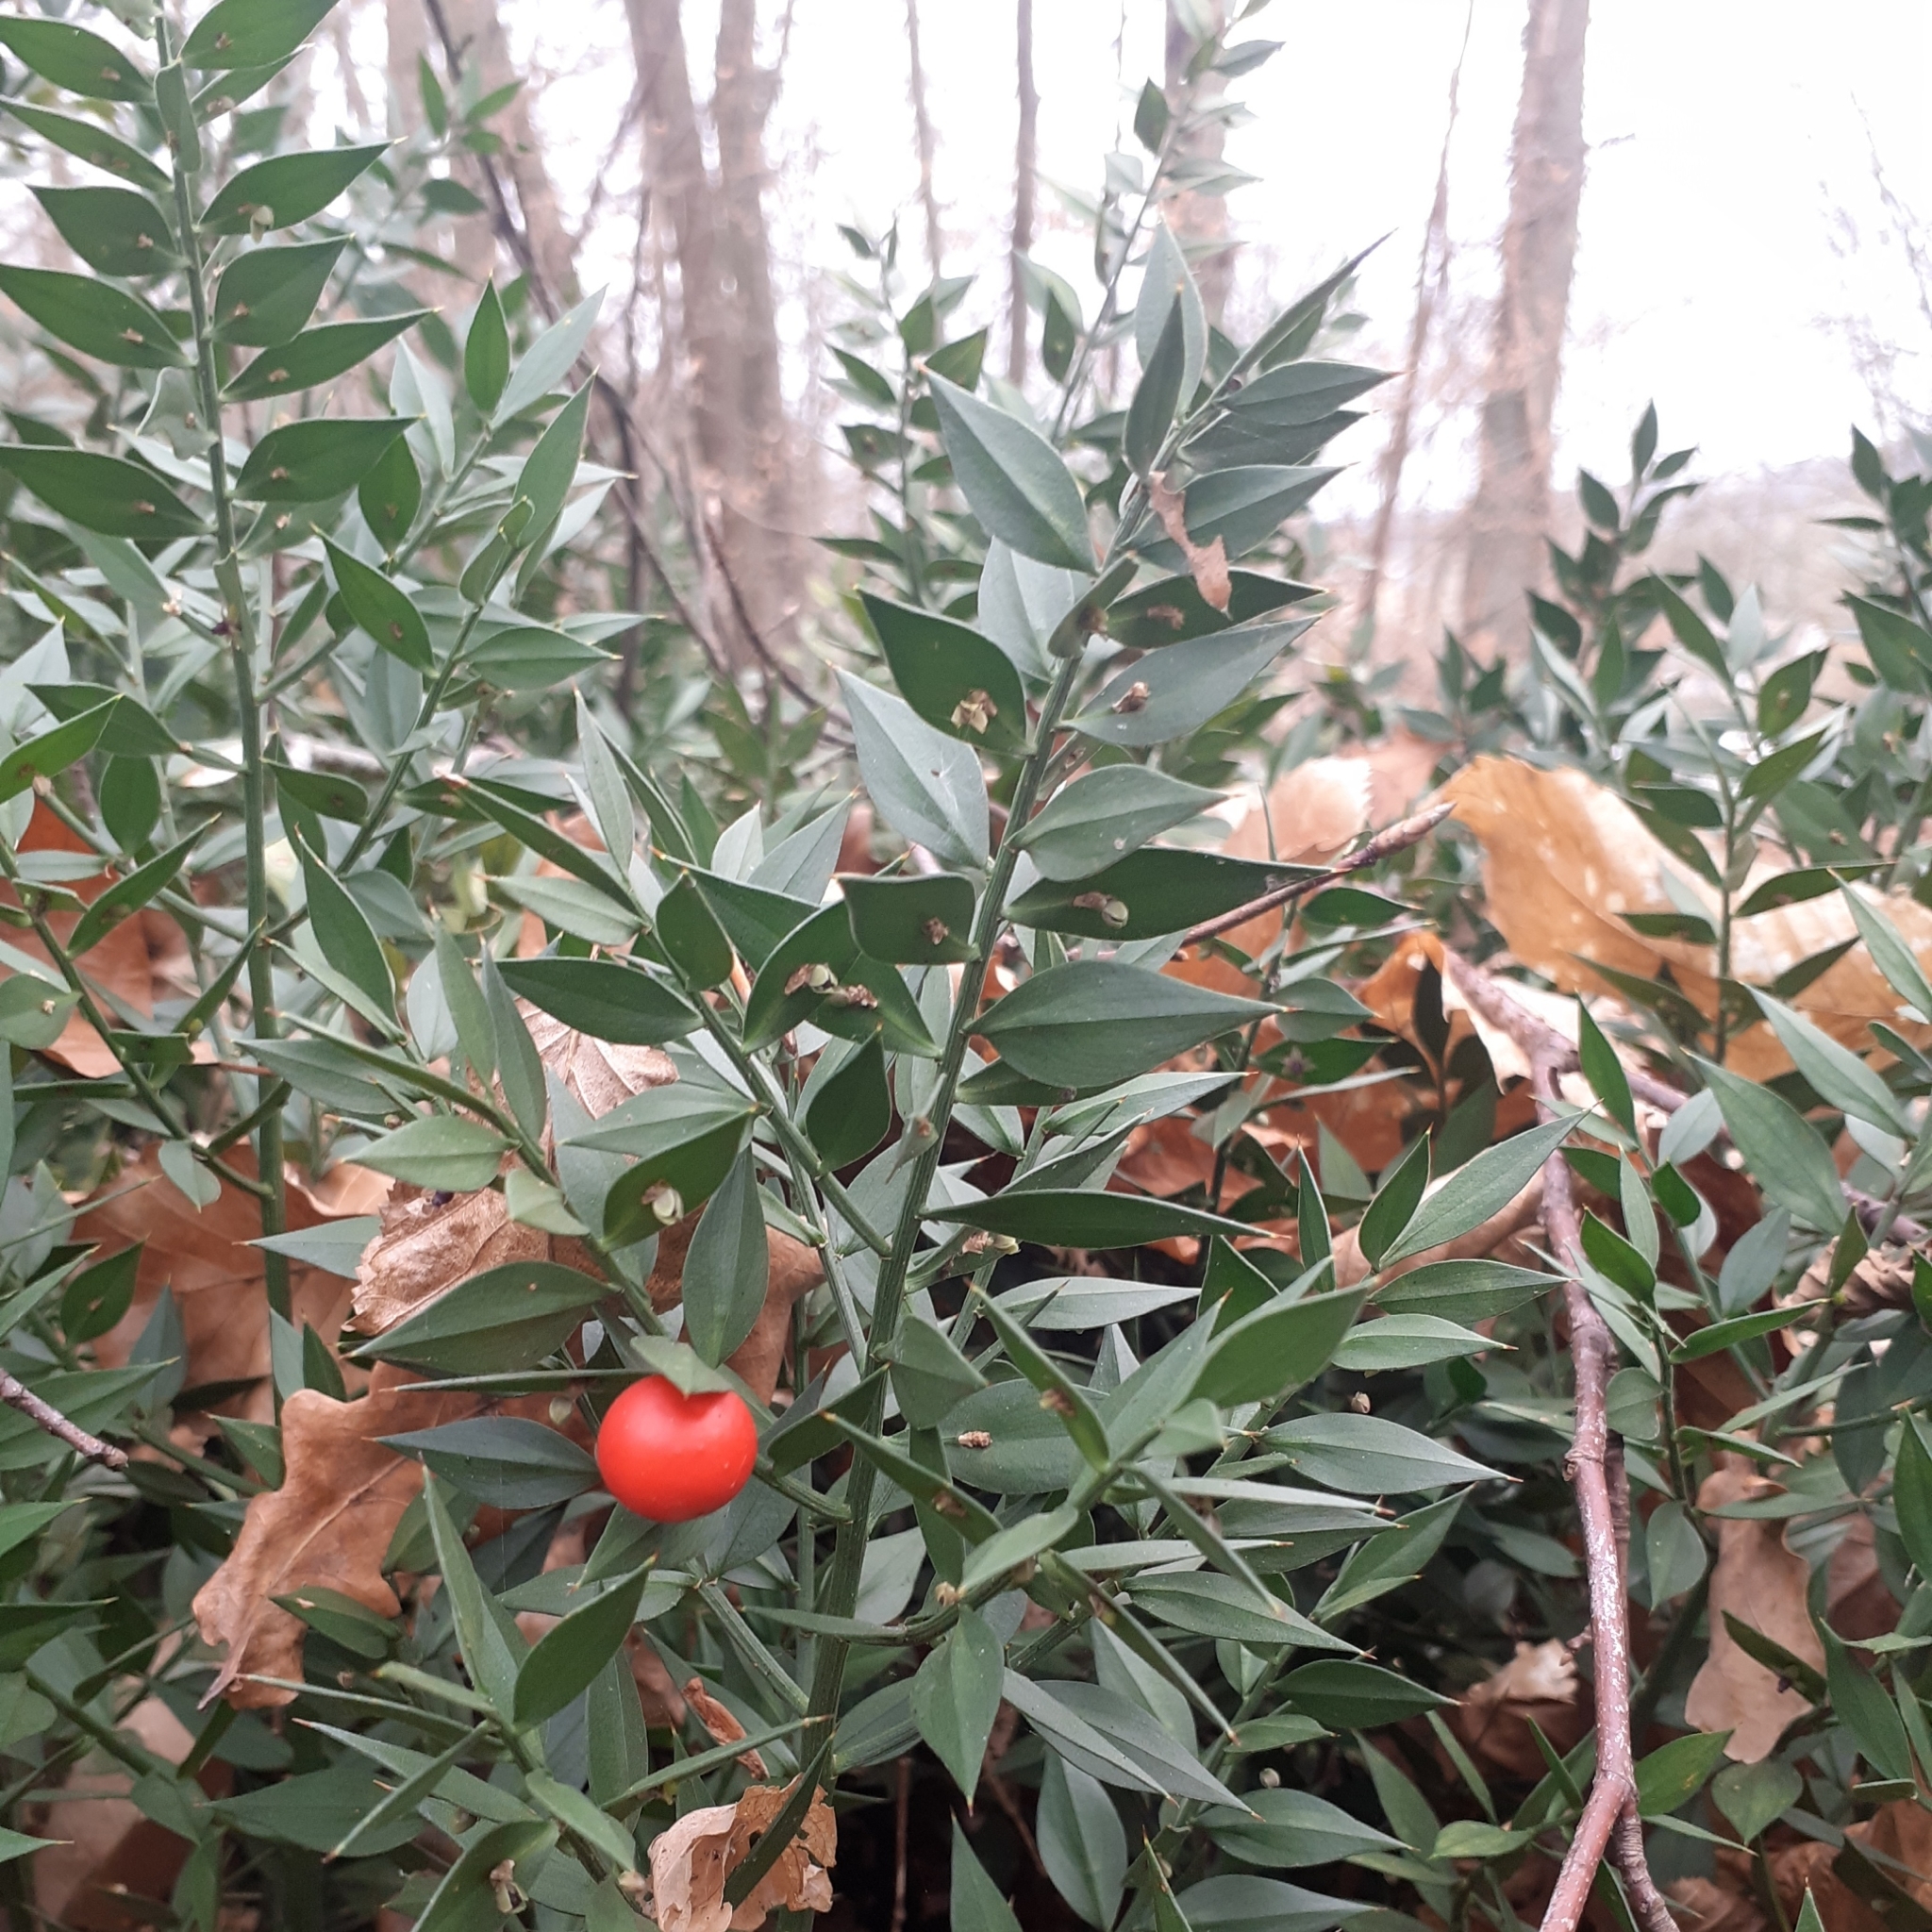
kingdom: Plantae
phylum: Tracheophyta
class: Liliopsida
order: Asparagales
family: Asparagaceae
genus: Ruscus
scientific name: Ruscus aculeatus
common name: Butcher's-broom
